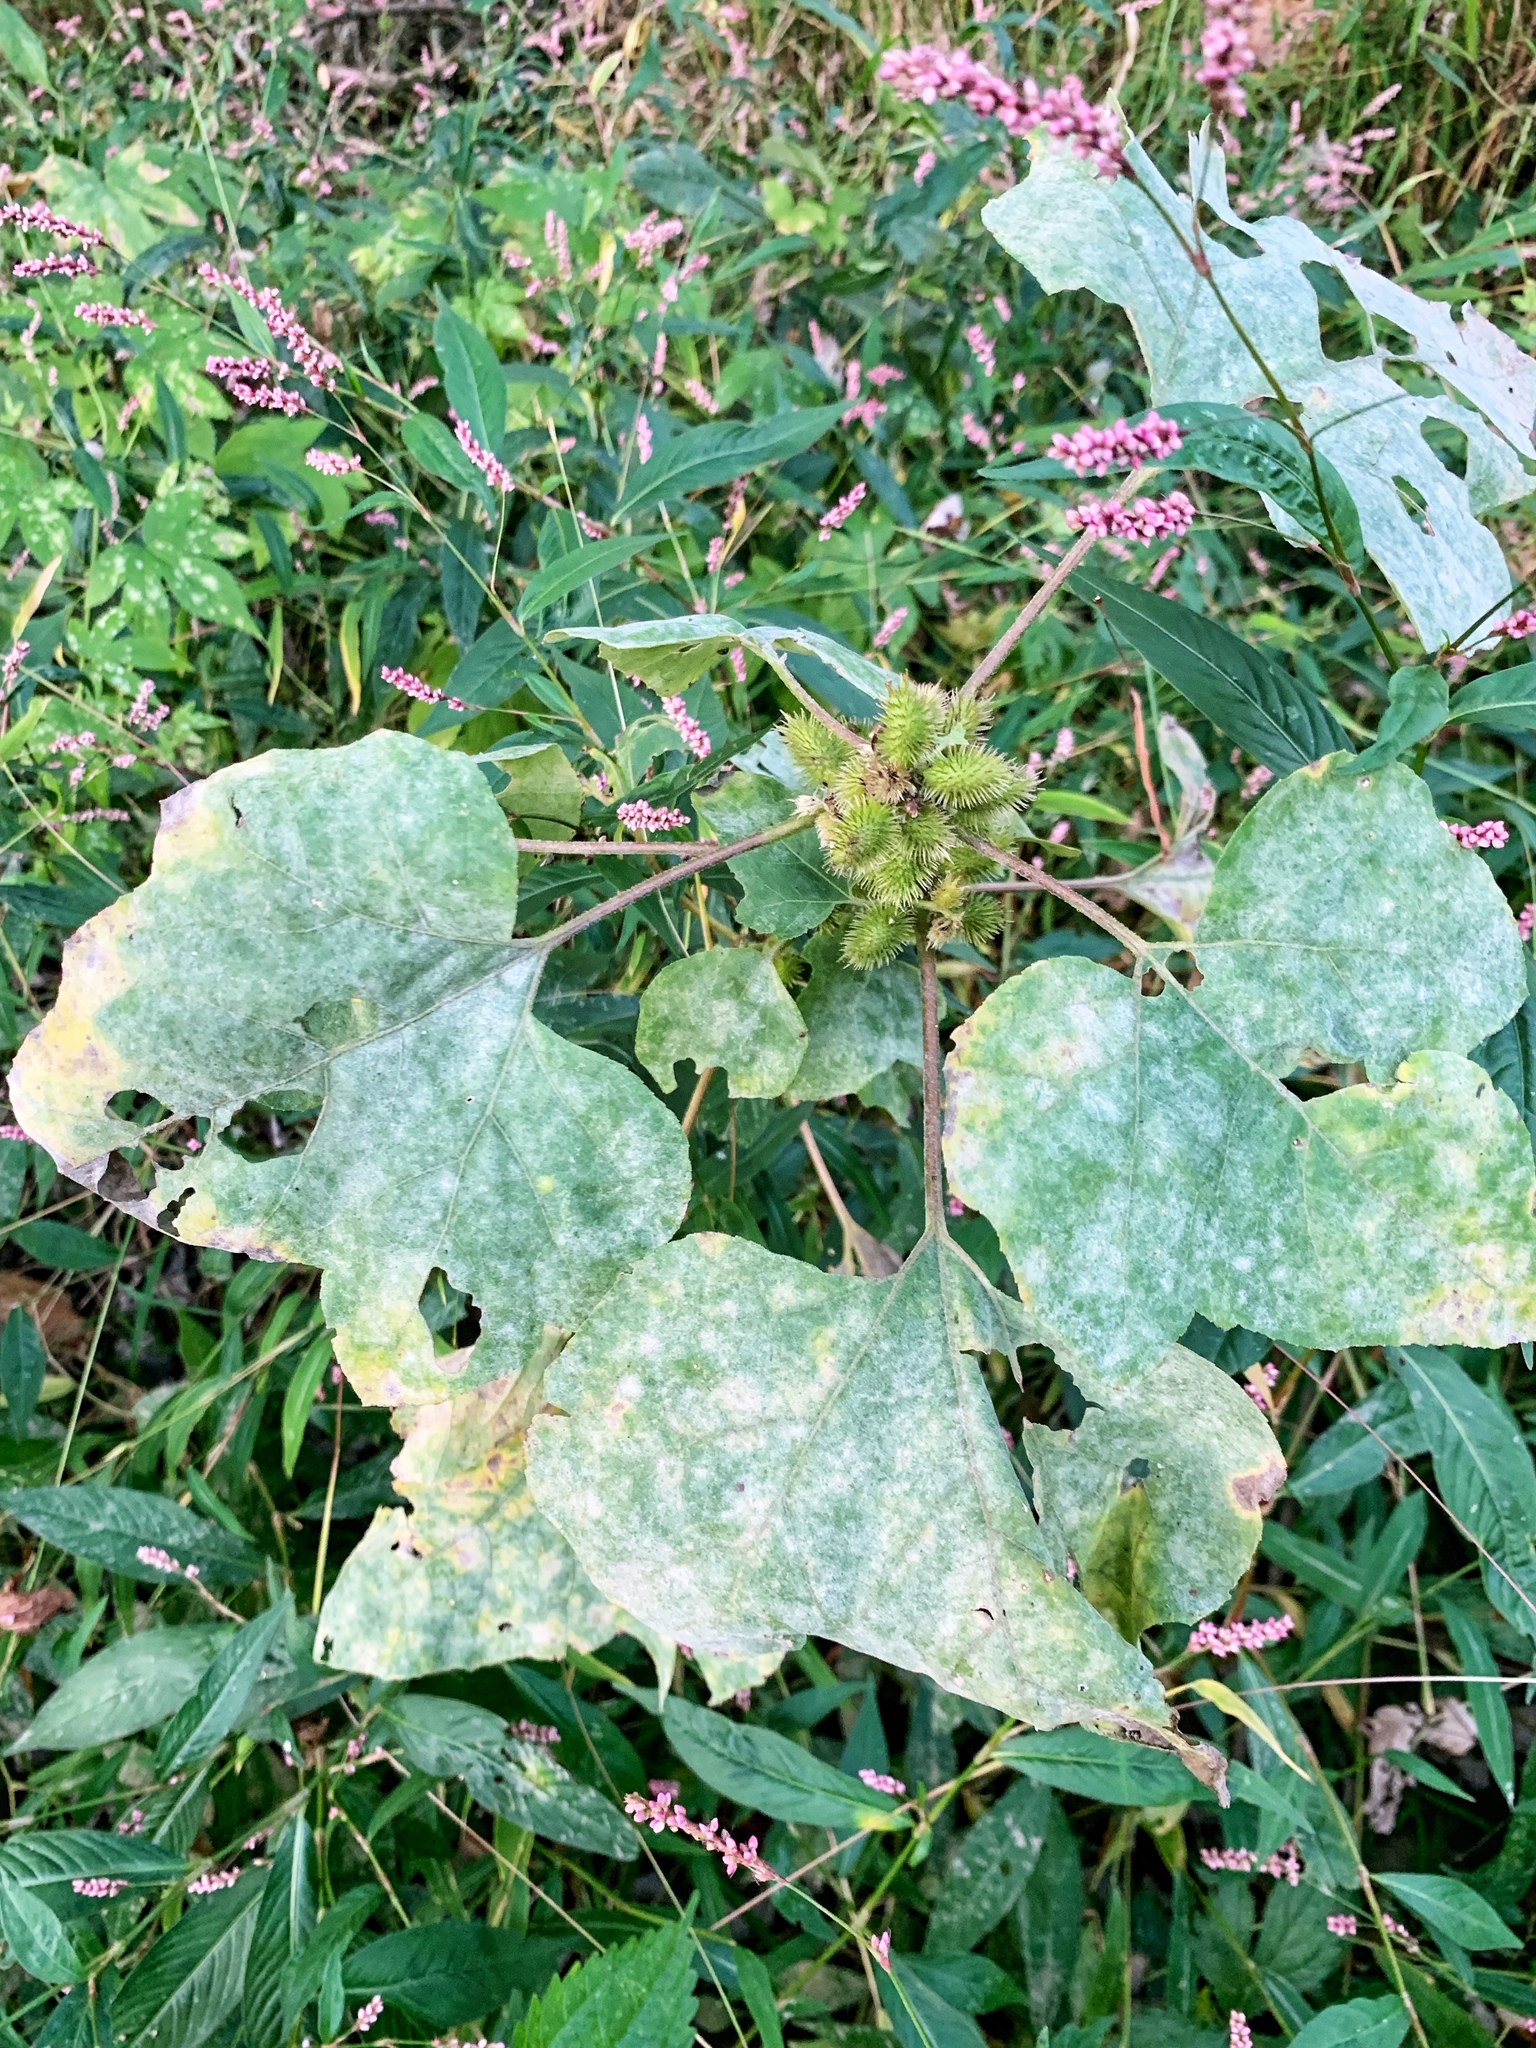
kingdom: Plantae
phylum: Tracheophyta
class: Magnoliopsida
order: Asterales
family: Asteraceae
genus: Xanthium
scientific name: Xanthium strumarium
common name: Rough cocklebur
